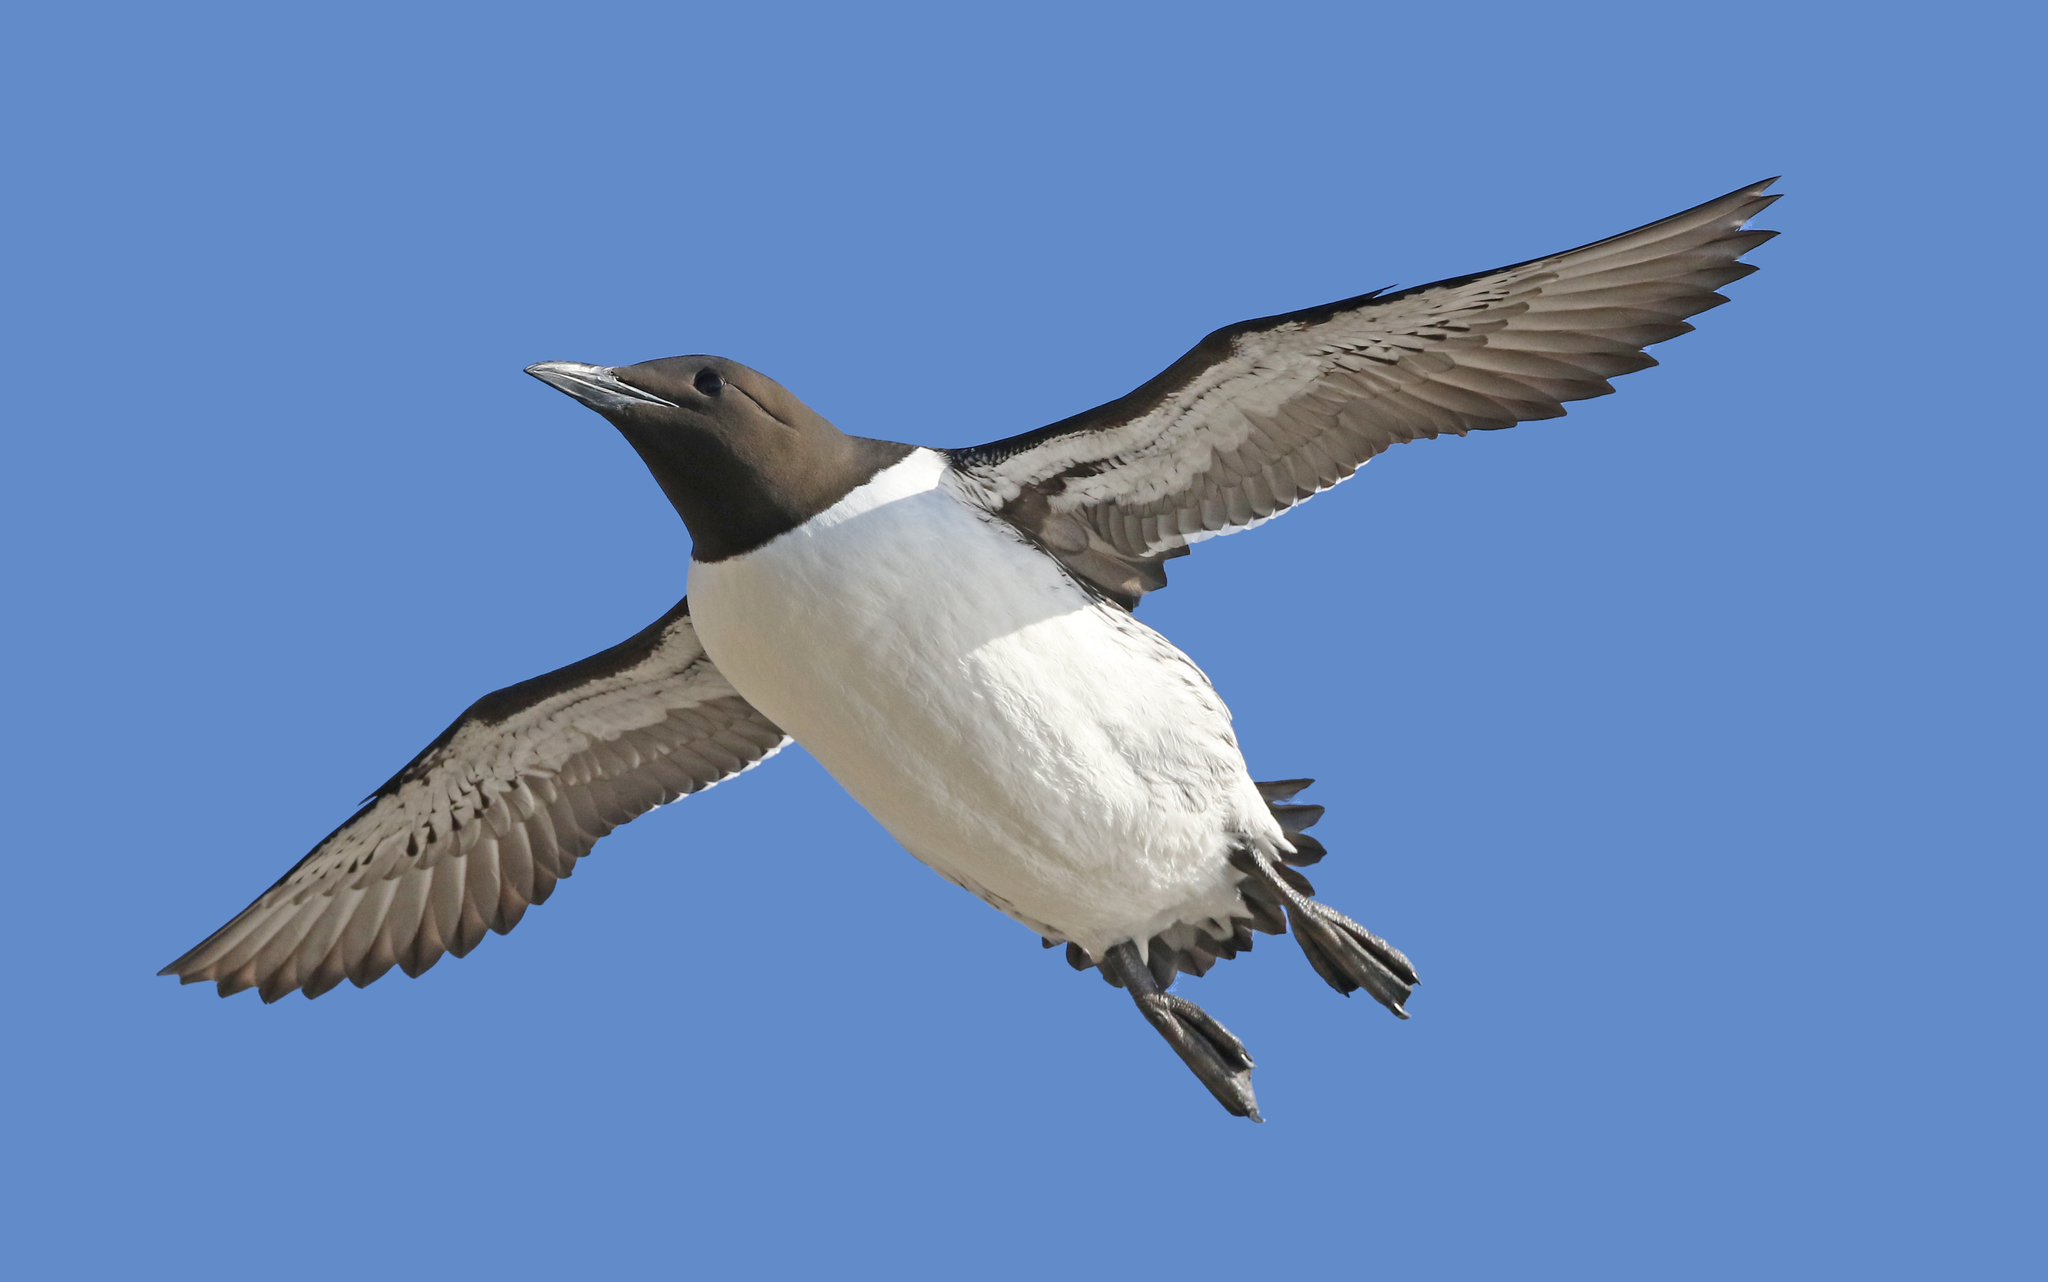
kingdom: Animalia
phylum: Chordata
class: Aves
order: Charadriiformes
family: Alcidae
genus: Uria
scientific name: Uria aalge
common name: Common murre
